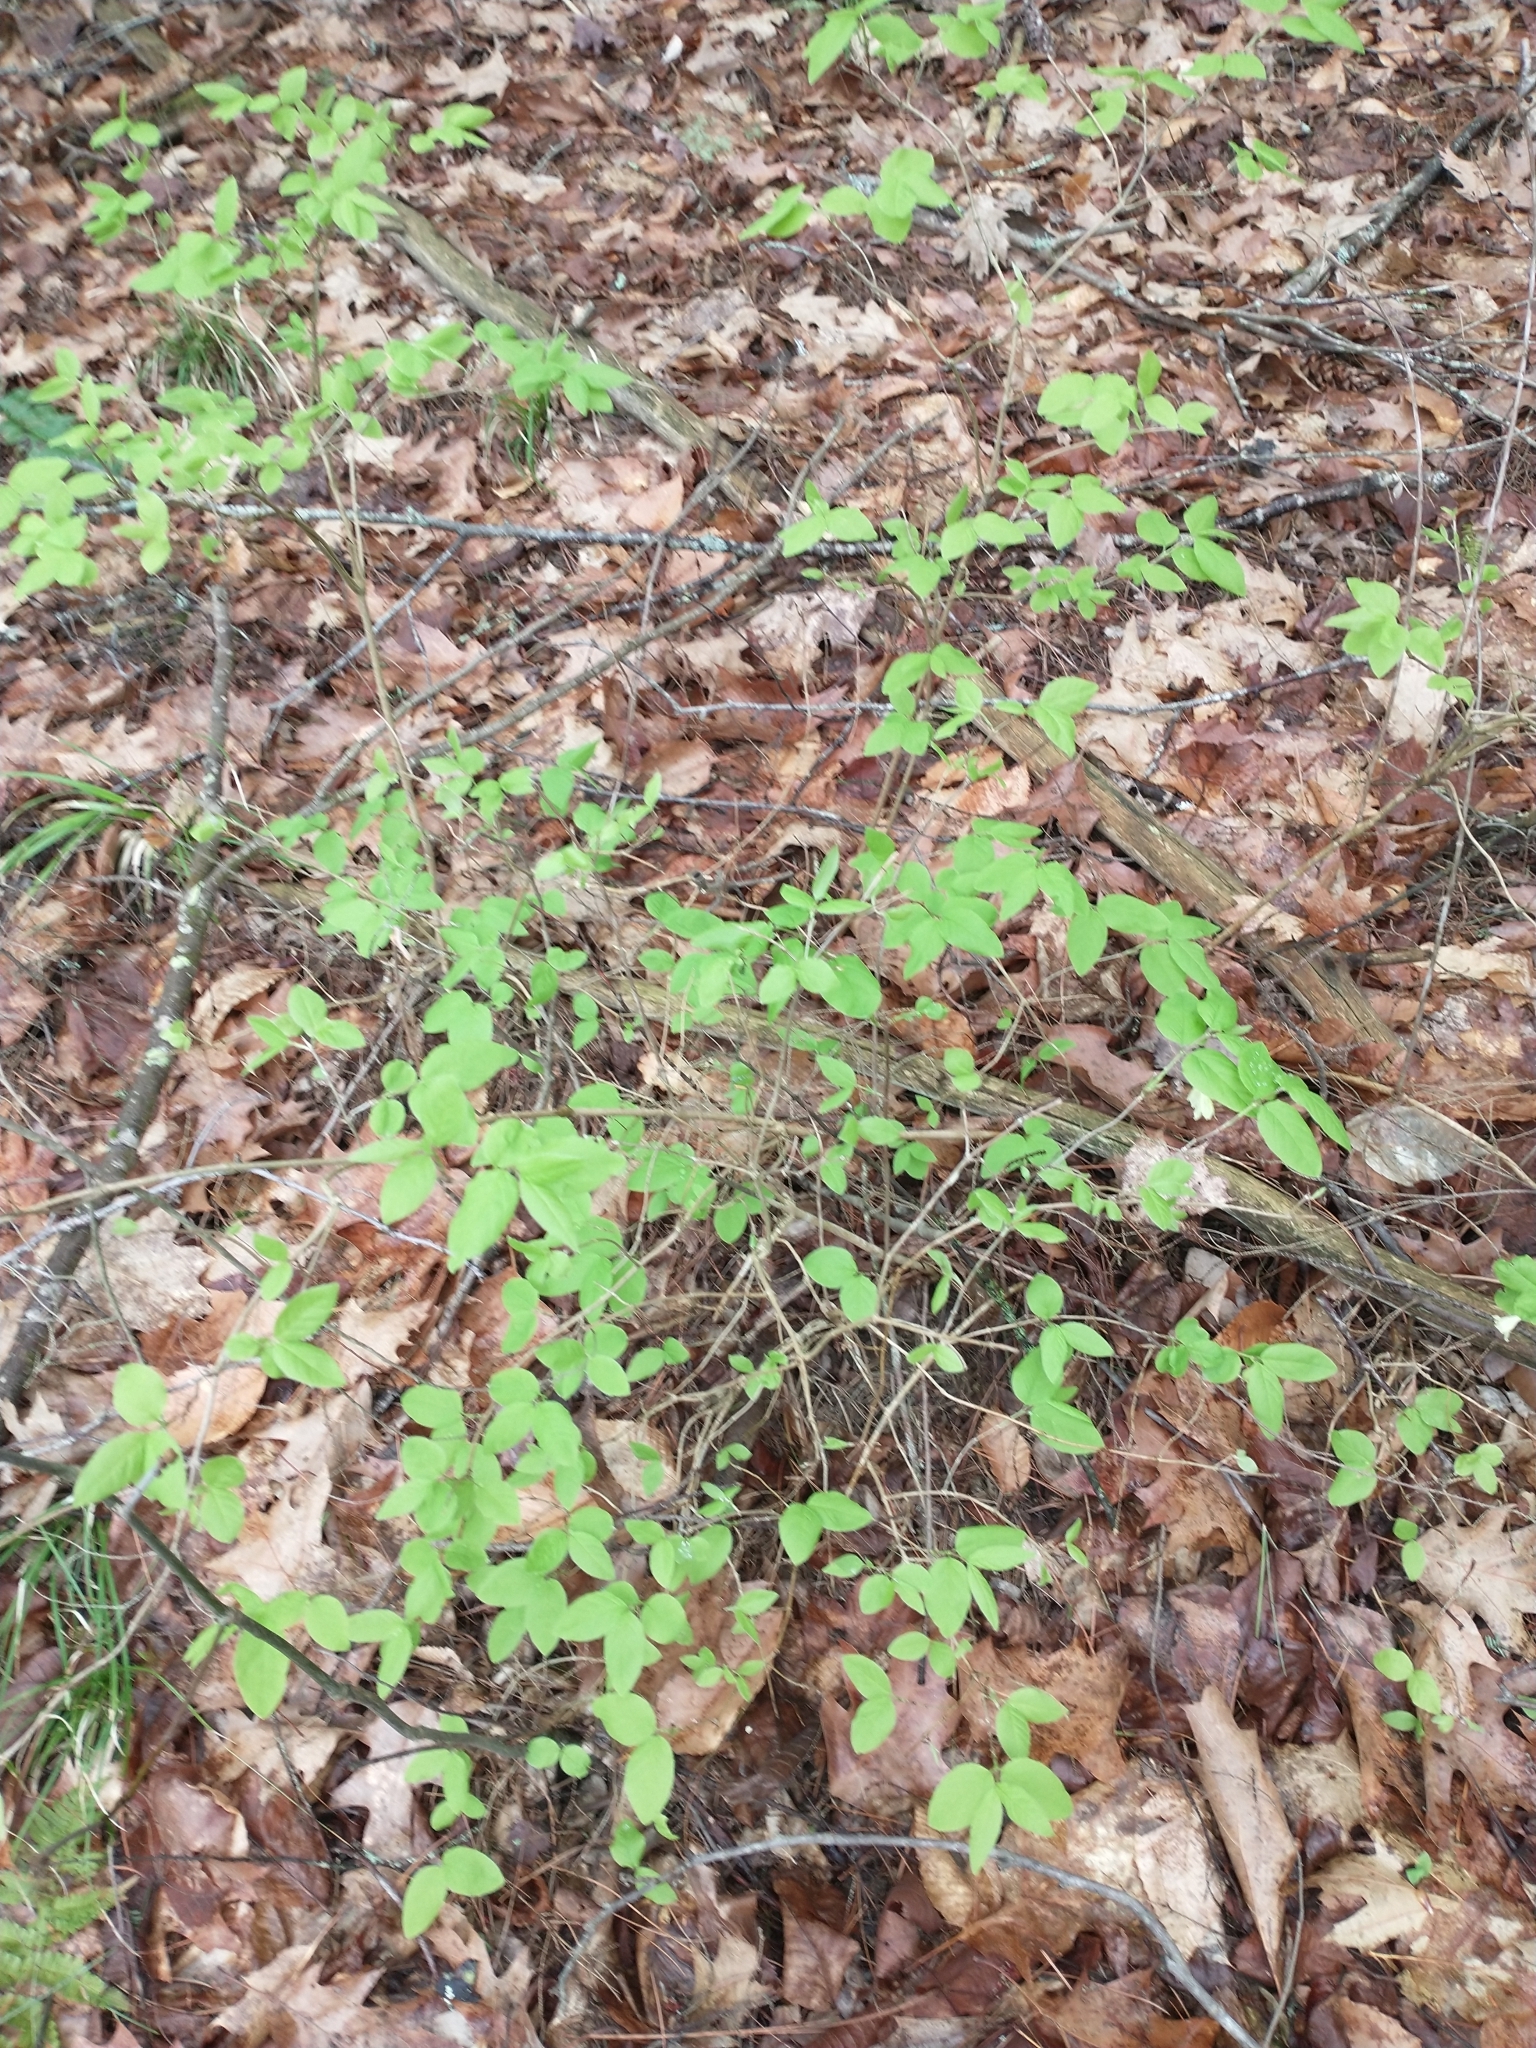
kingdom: Plantae
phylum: Tracheophyta
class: Magnoliopsida
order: Dipsacales
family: Caprifoliaceae
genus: Lonicera
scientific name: Lonicera canadensis
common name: American fly-honeysuckle
